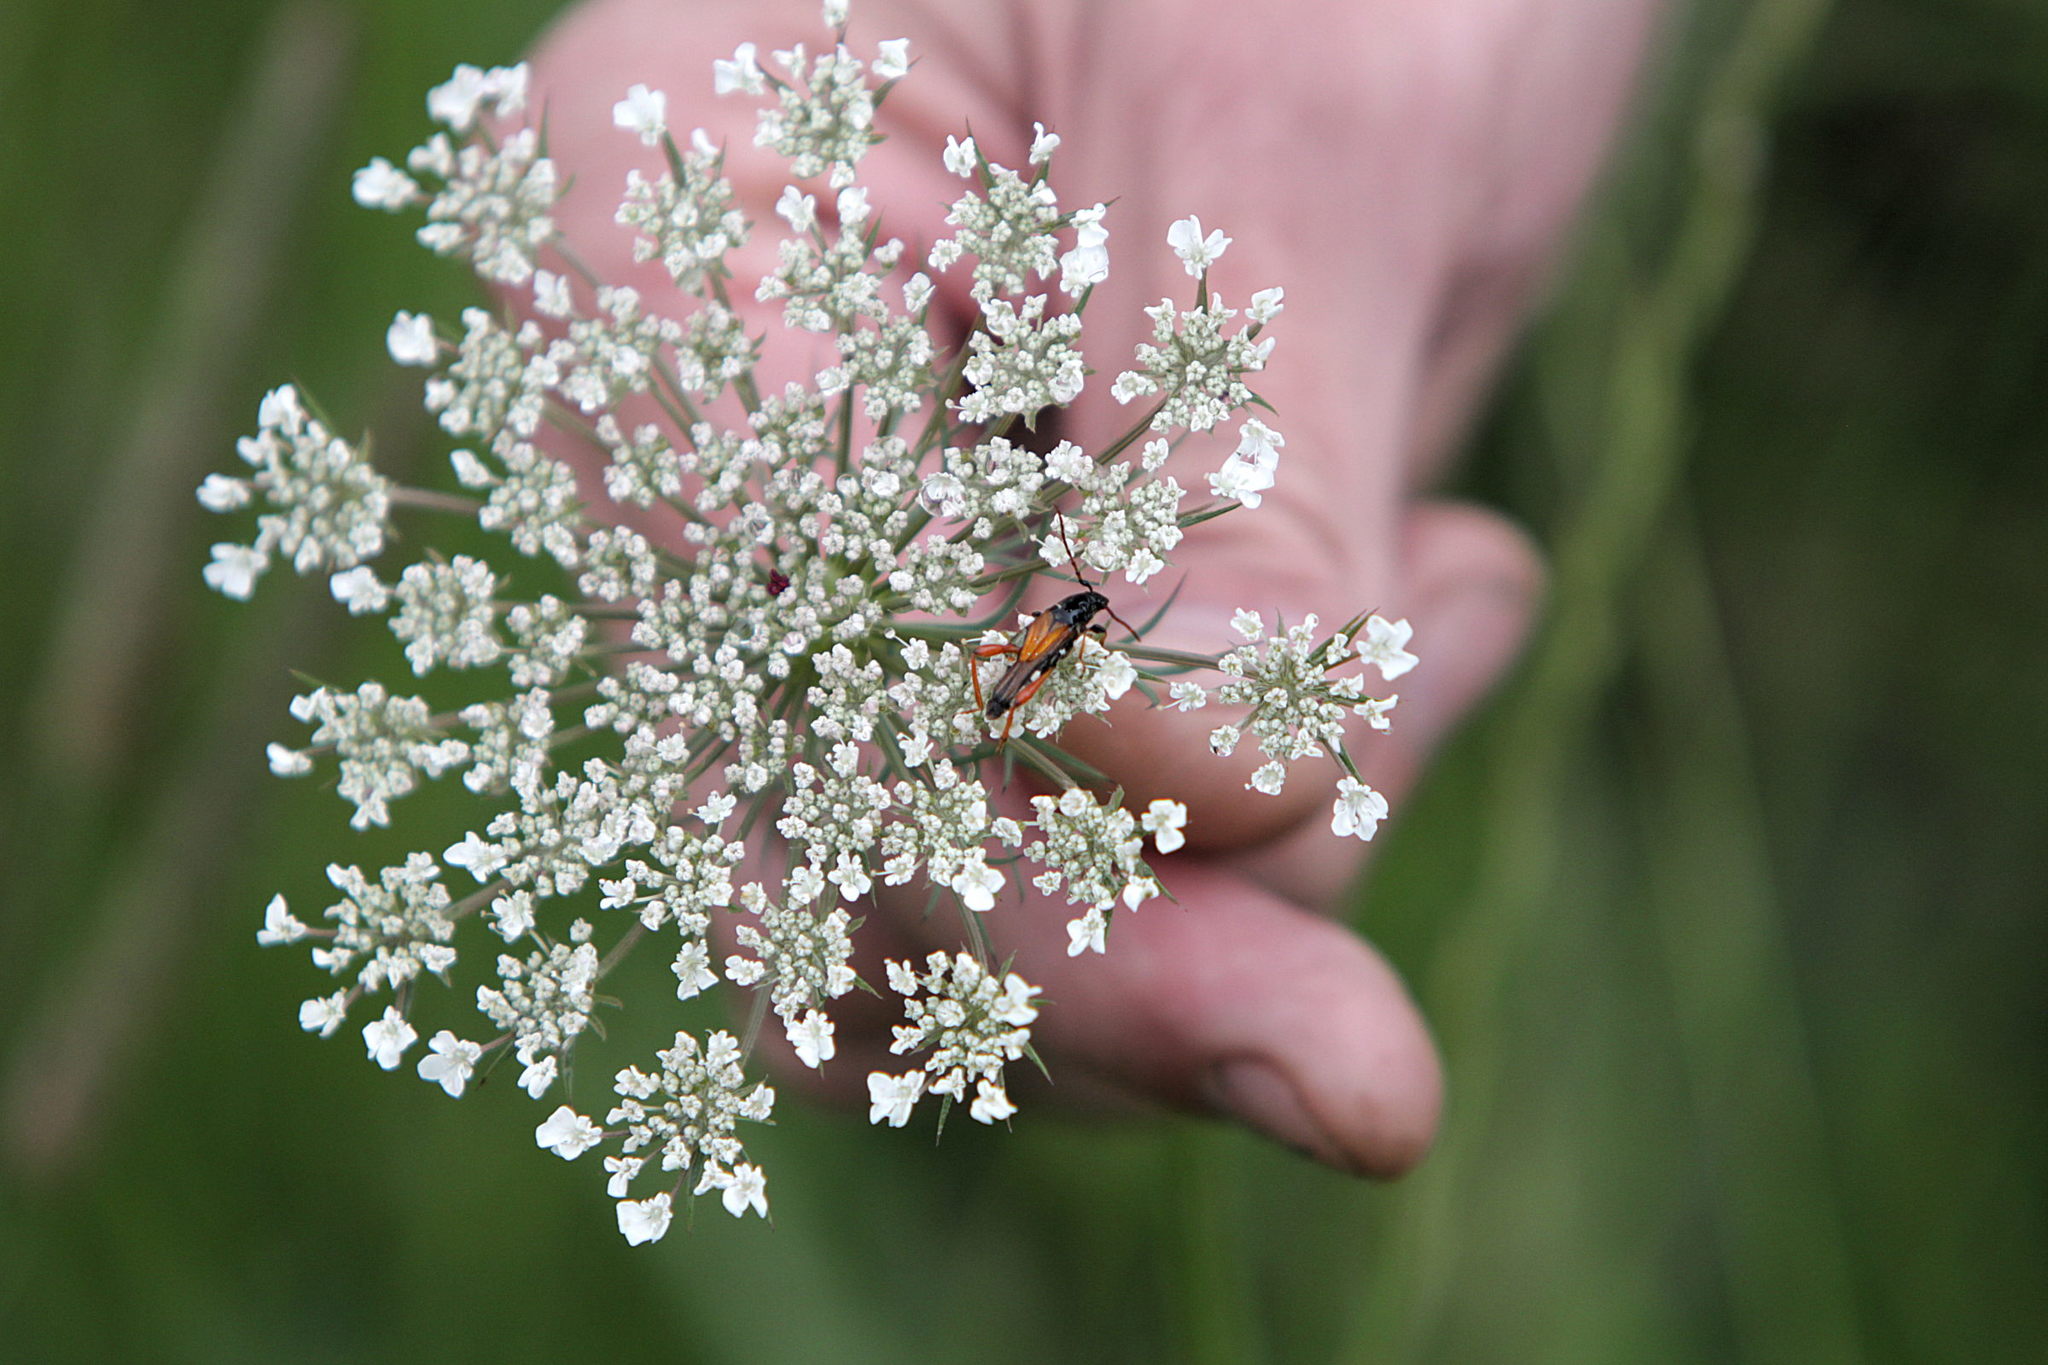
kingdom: Animalia
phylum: Arthropoda
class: Insecta
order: Coleoptera
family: Cerambycidae
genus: Stenopterus
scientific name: Stenopterus rufus
